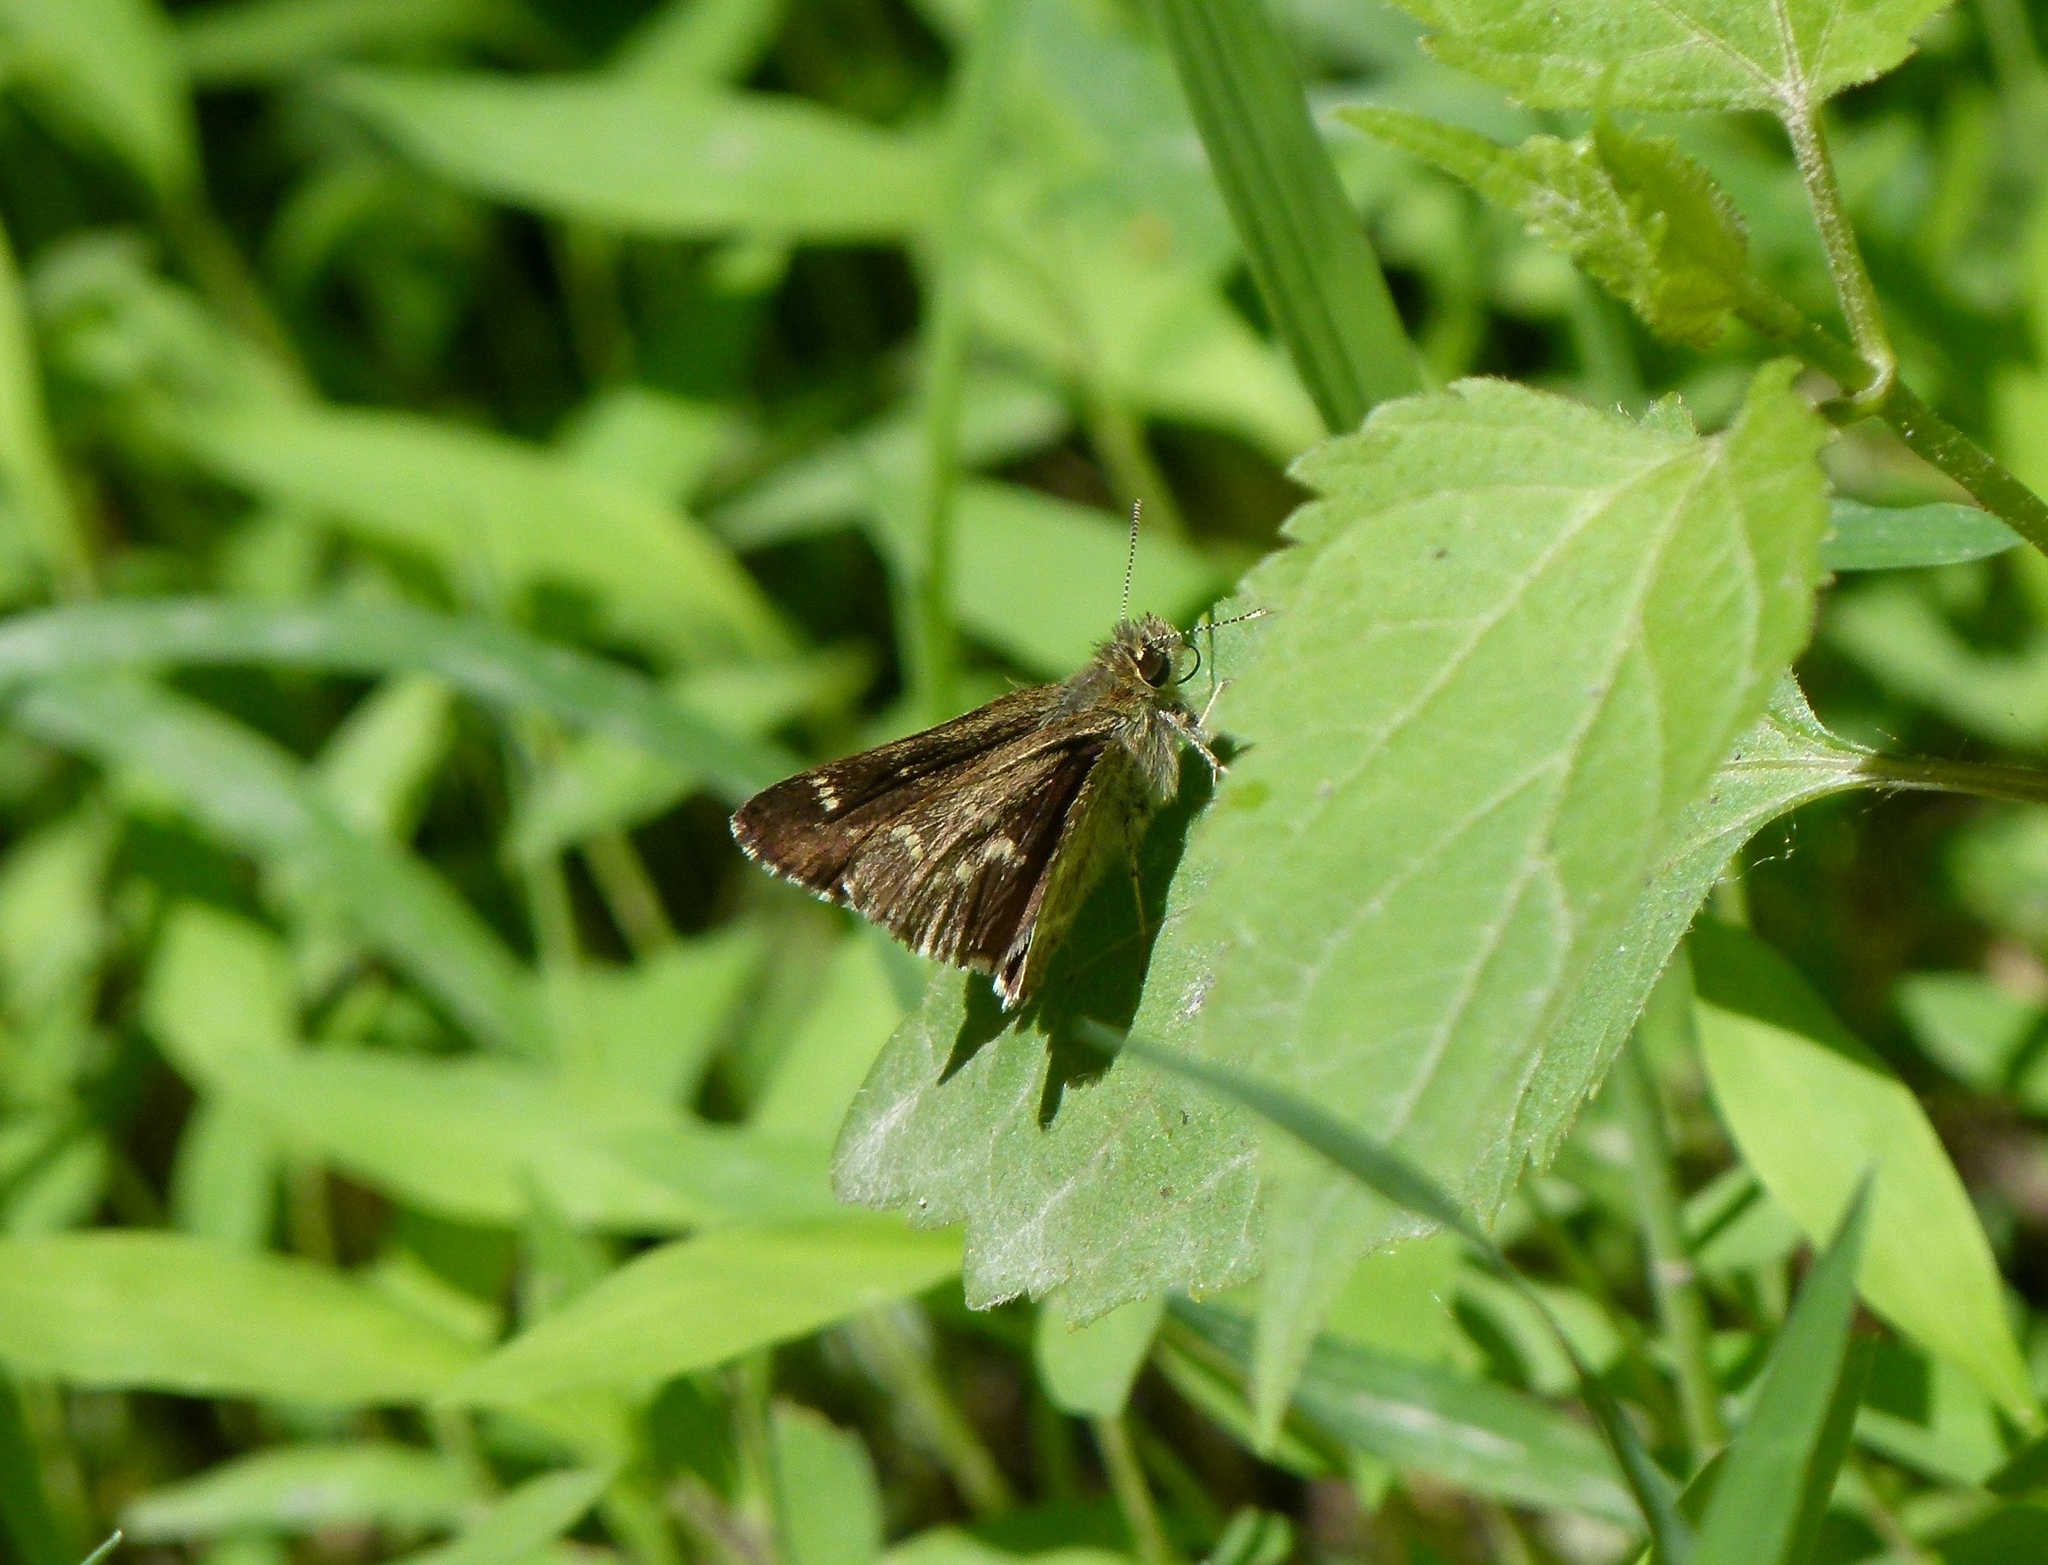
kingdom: Animalia
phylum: Arthropoda
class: Insecta
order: Lepidoptera
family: Hesperiidae
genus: Mastor
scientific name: Mastor hegon
